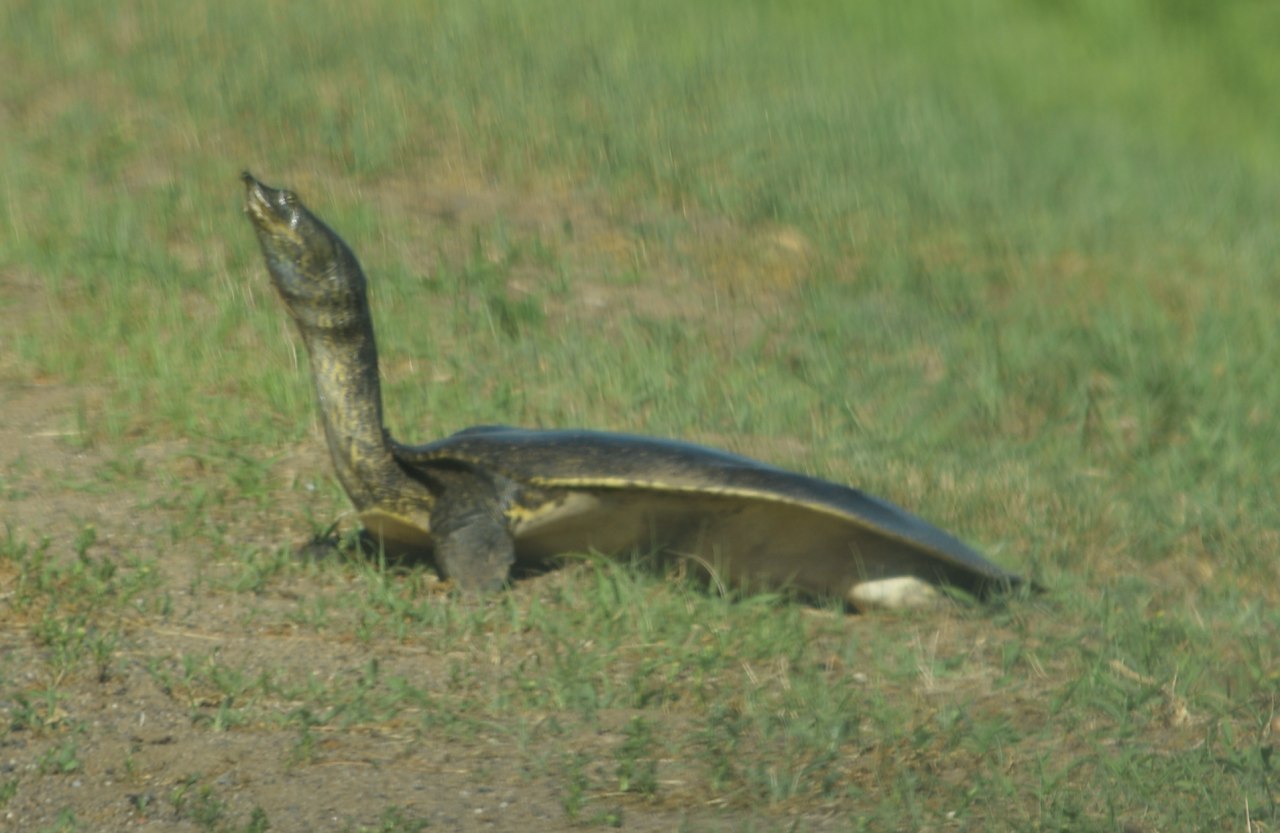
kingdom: Animalia
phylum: Chordata
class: Testudines
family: Trionychidae
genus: Apalone
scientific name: Apalone spinifera
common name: Spiny softshell turtle
